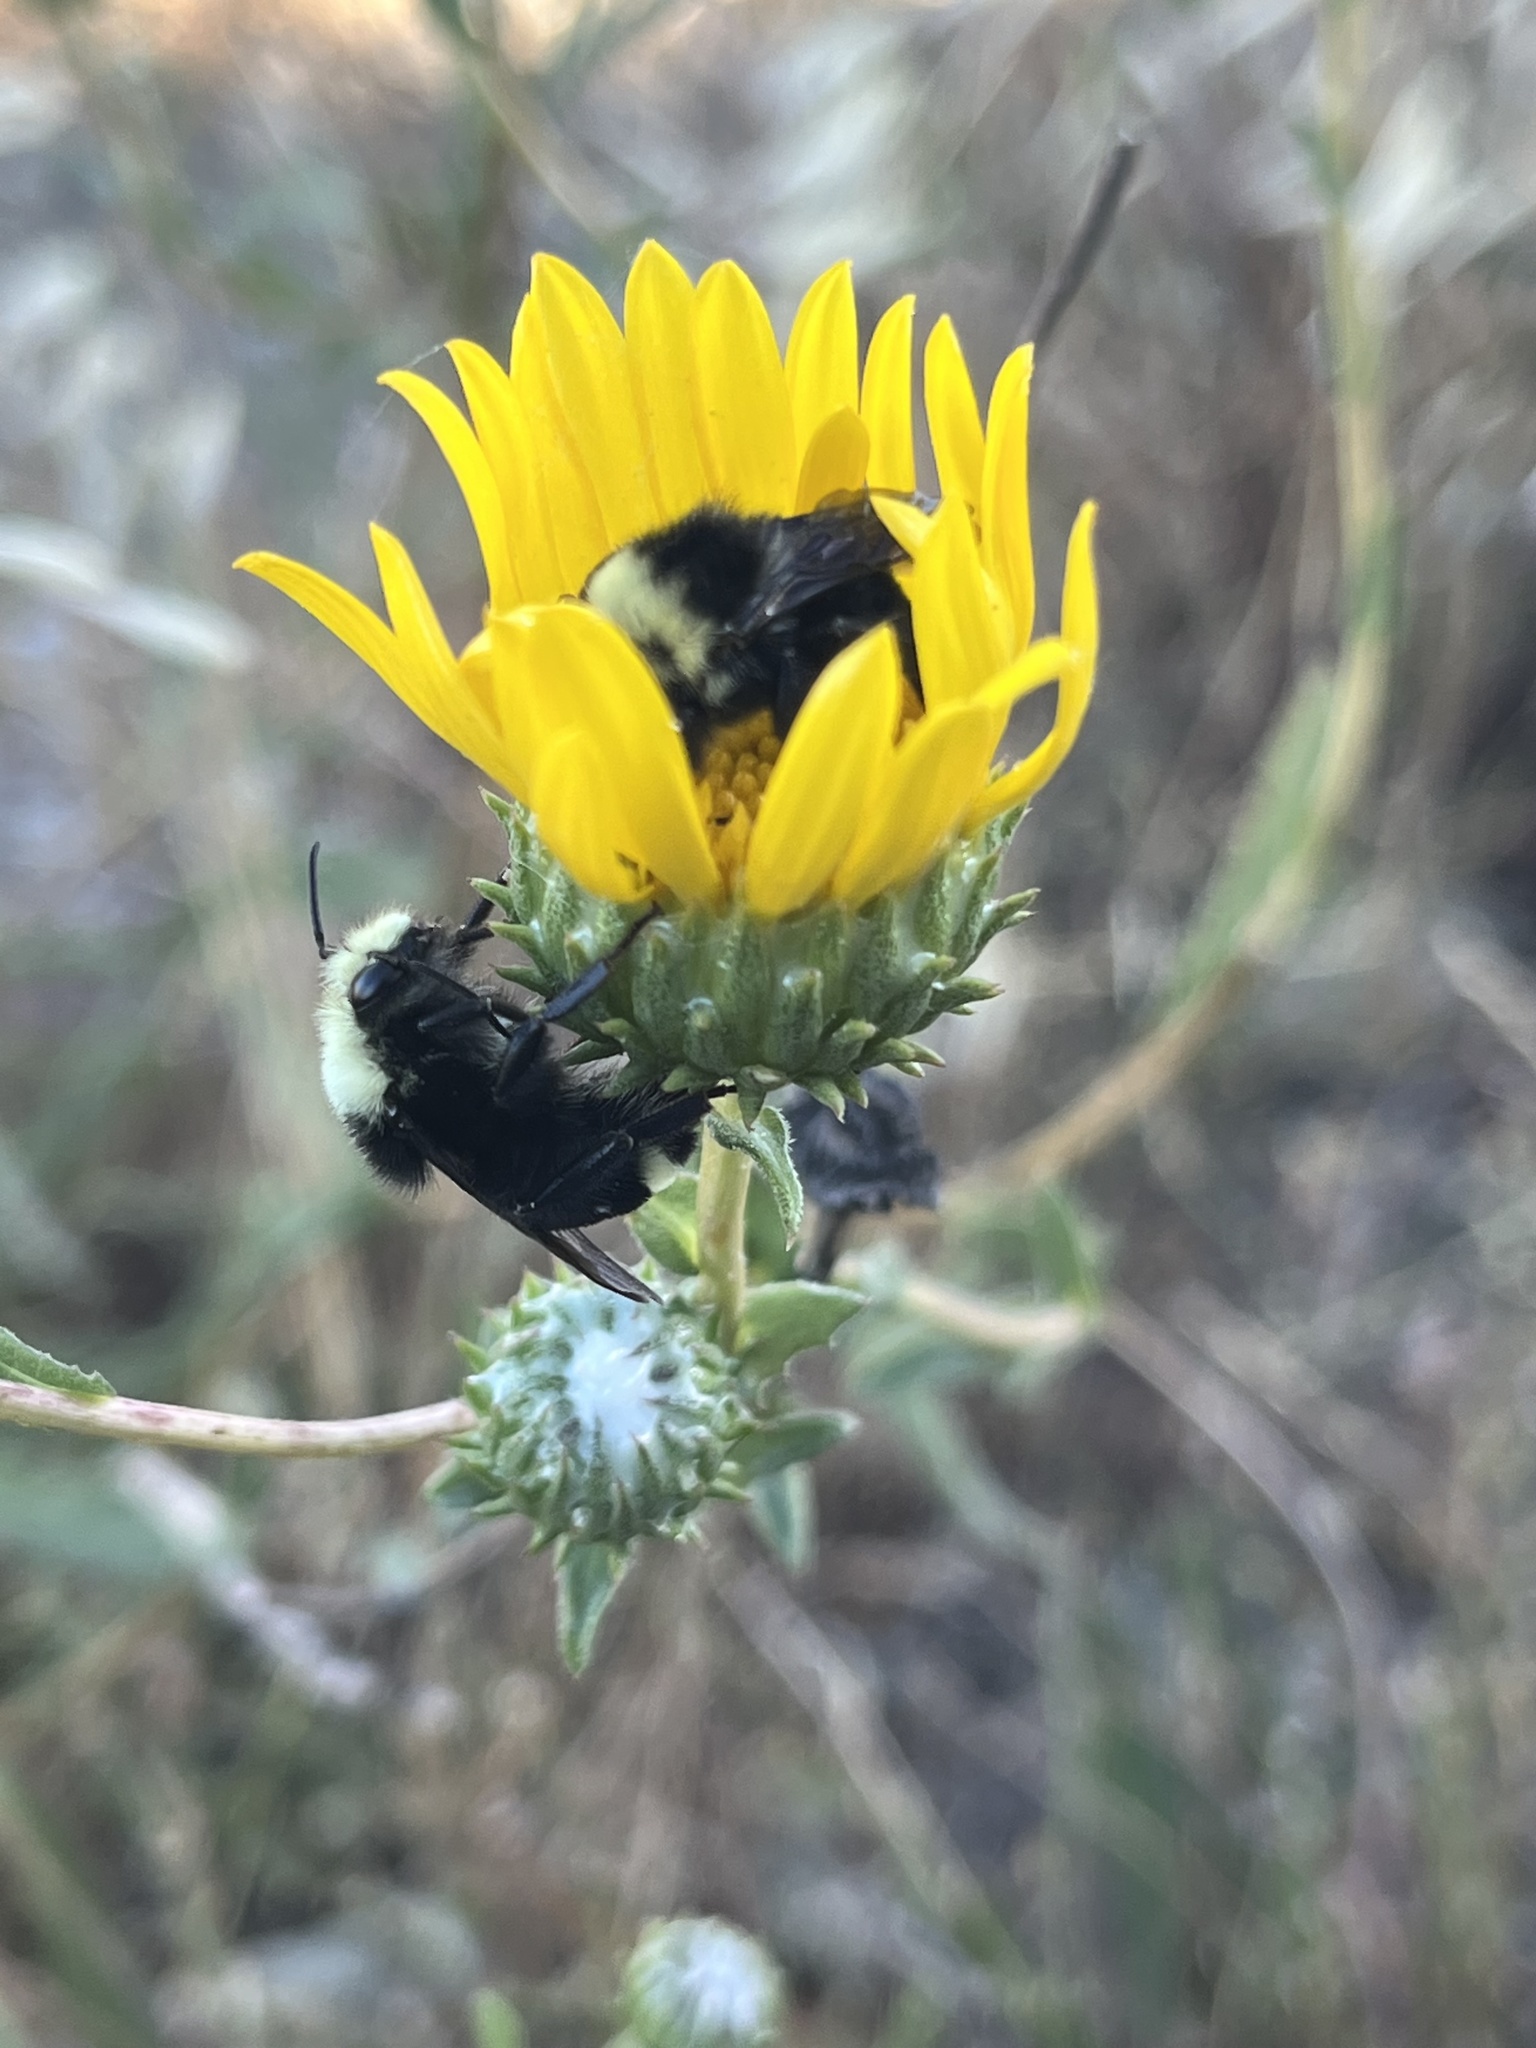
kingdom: Animalia
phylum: Arthropoda
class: Insecta
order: Hymenoptera
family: Apidae
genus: Bombus
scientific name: Bombus vosnesenskii
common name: Vosnesensky bumble bee
